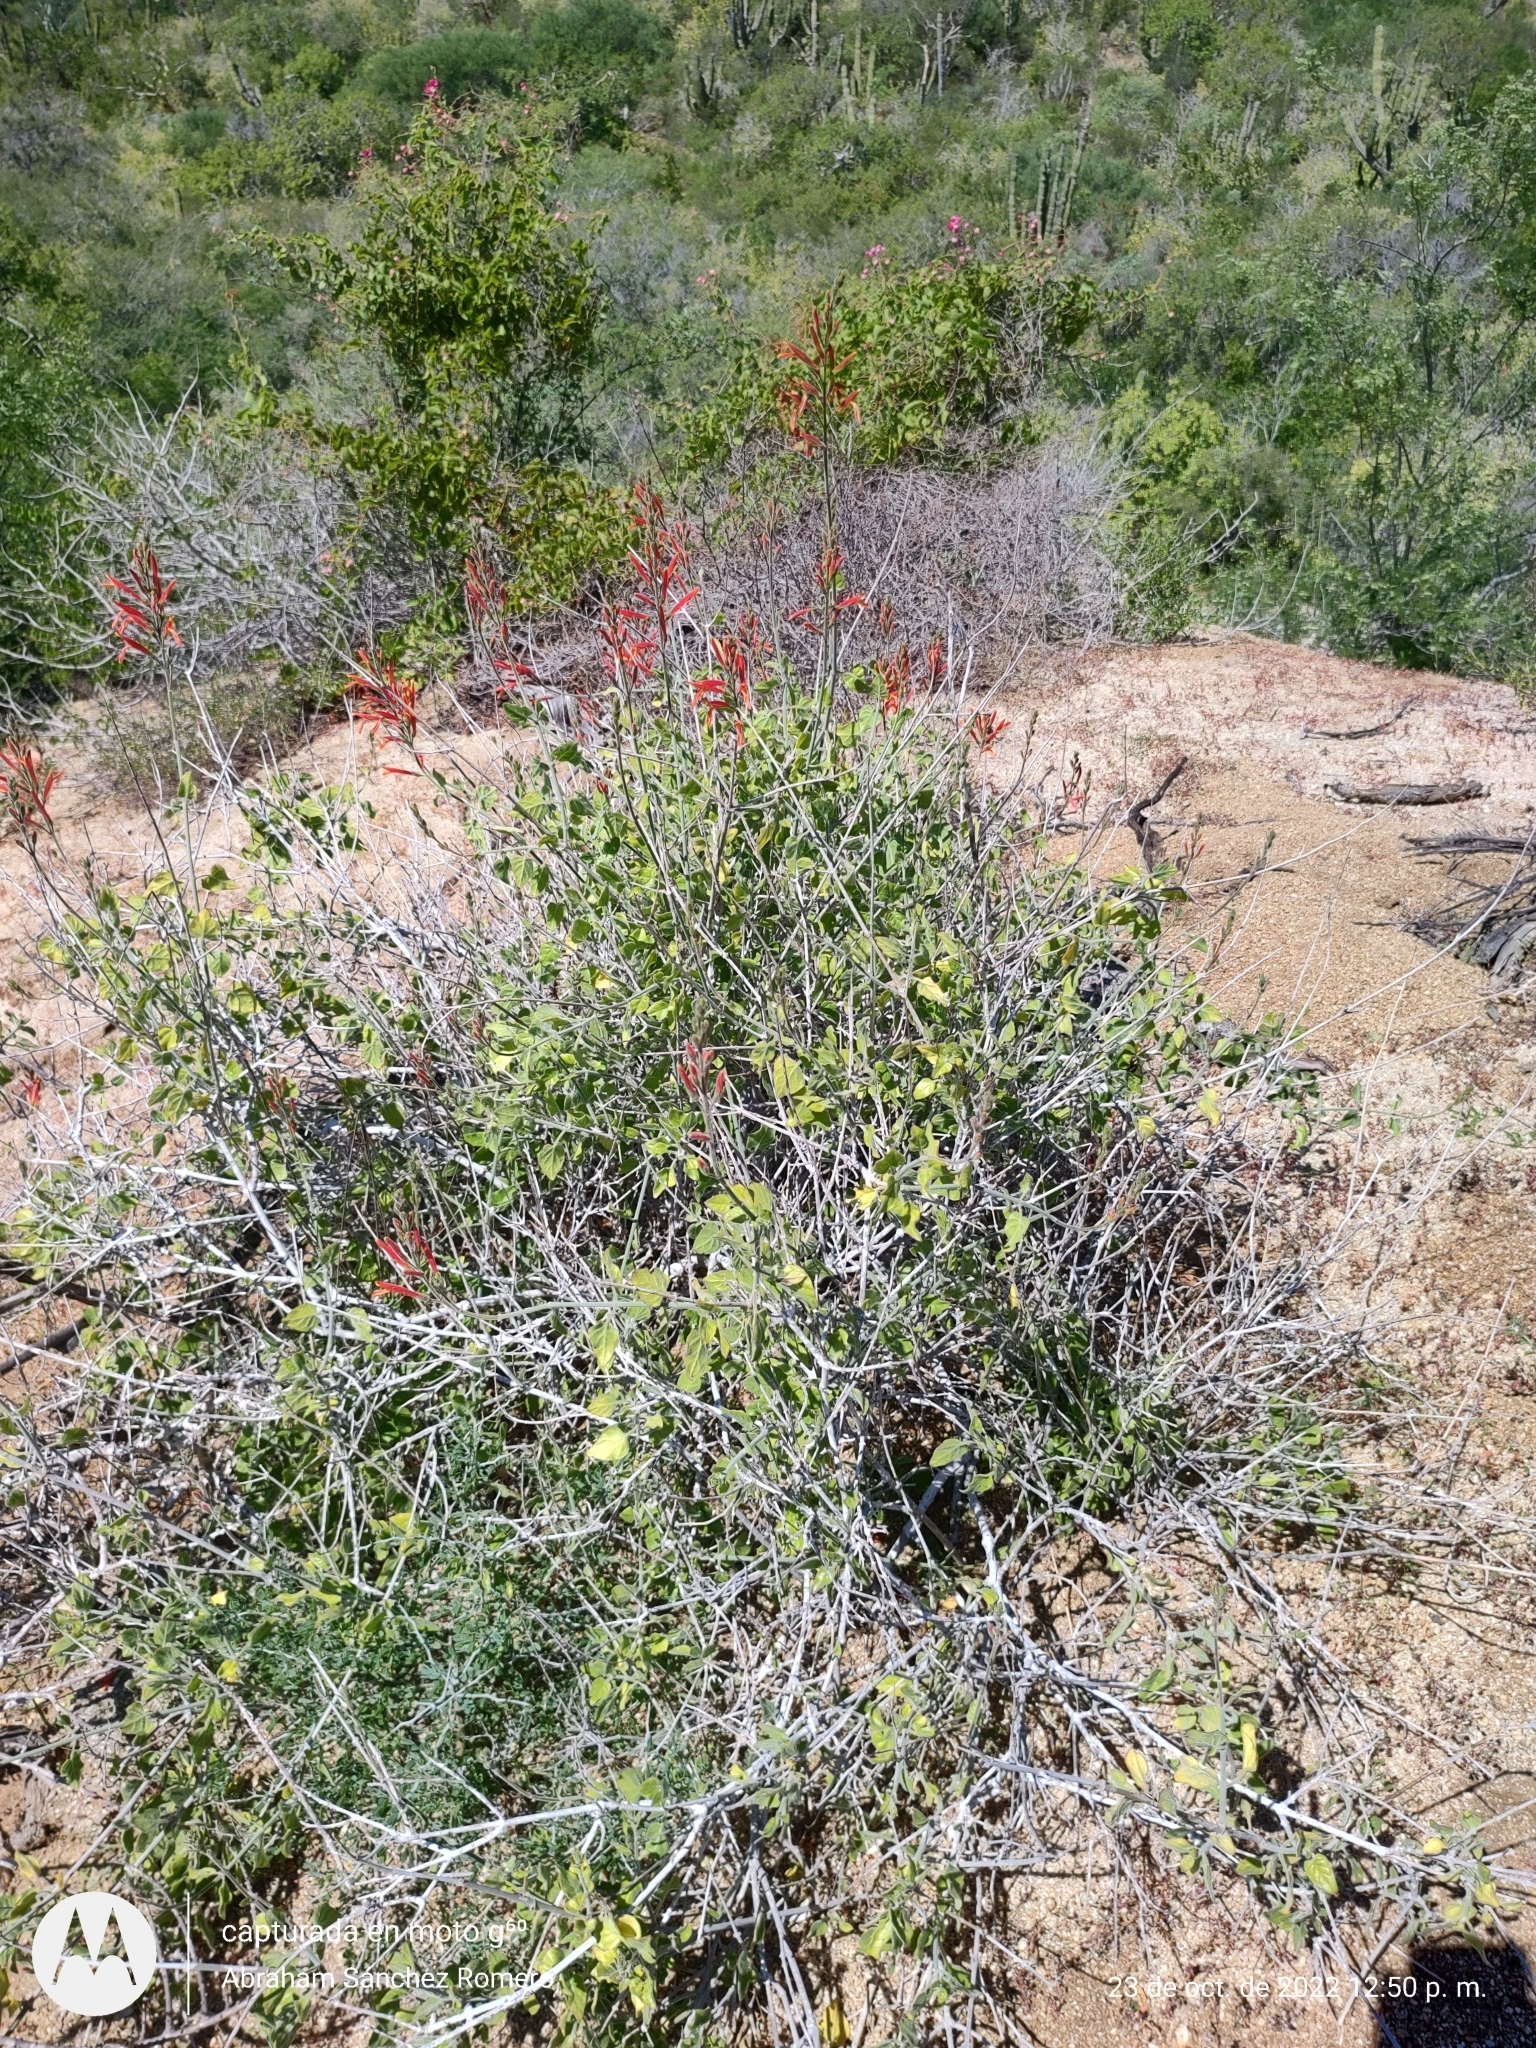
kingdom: Plantae
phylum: Tracheophyta
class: Magnoliopsida
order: Lamiales
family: Acanthaceae
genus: Justicia
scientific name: Justicia californica
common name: Chuparosa-honeysuckle
